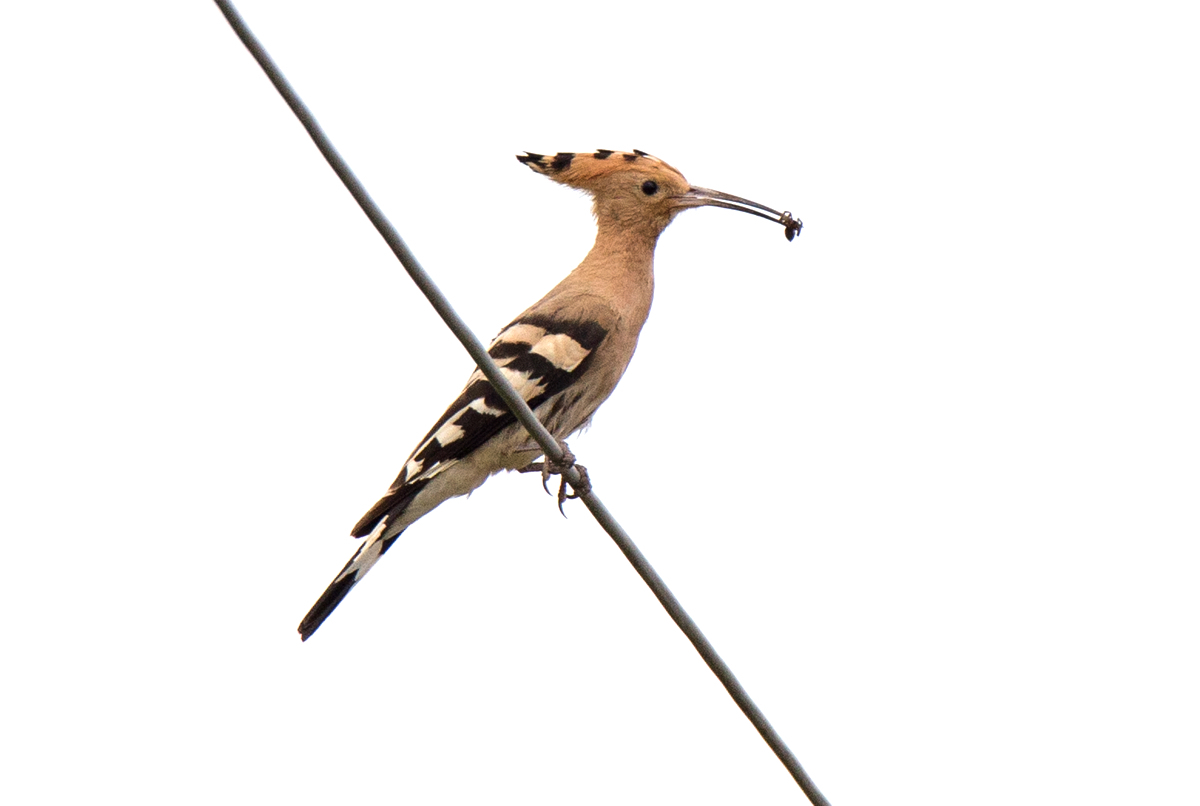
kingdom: Animalia
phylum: Chordata
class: Aves
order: Bucerotiformes
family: Upupidae
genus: Upupa
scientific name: Upupa epops
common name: Eurasian hoopoe
